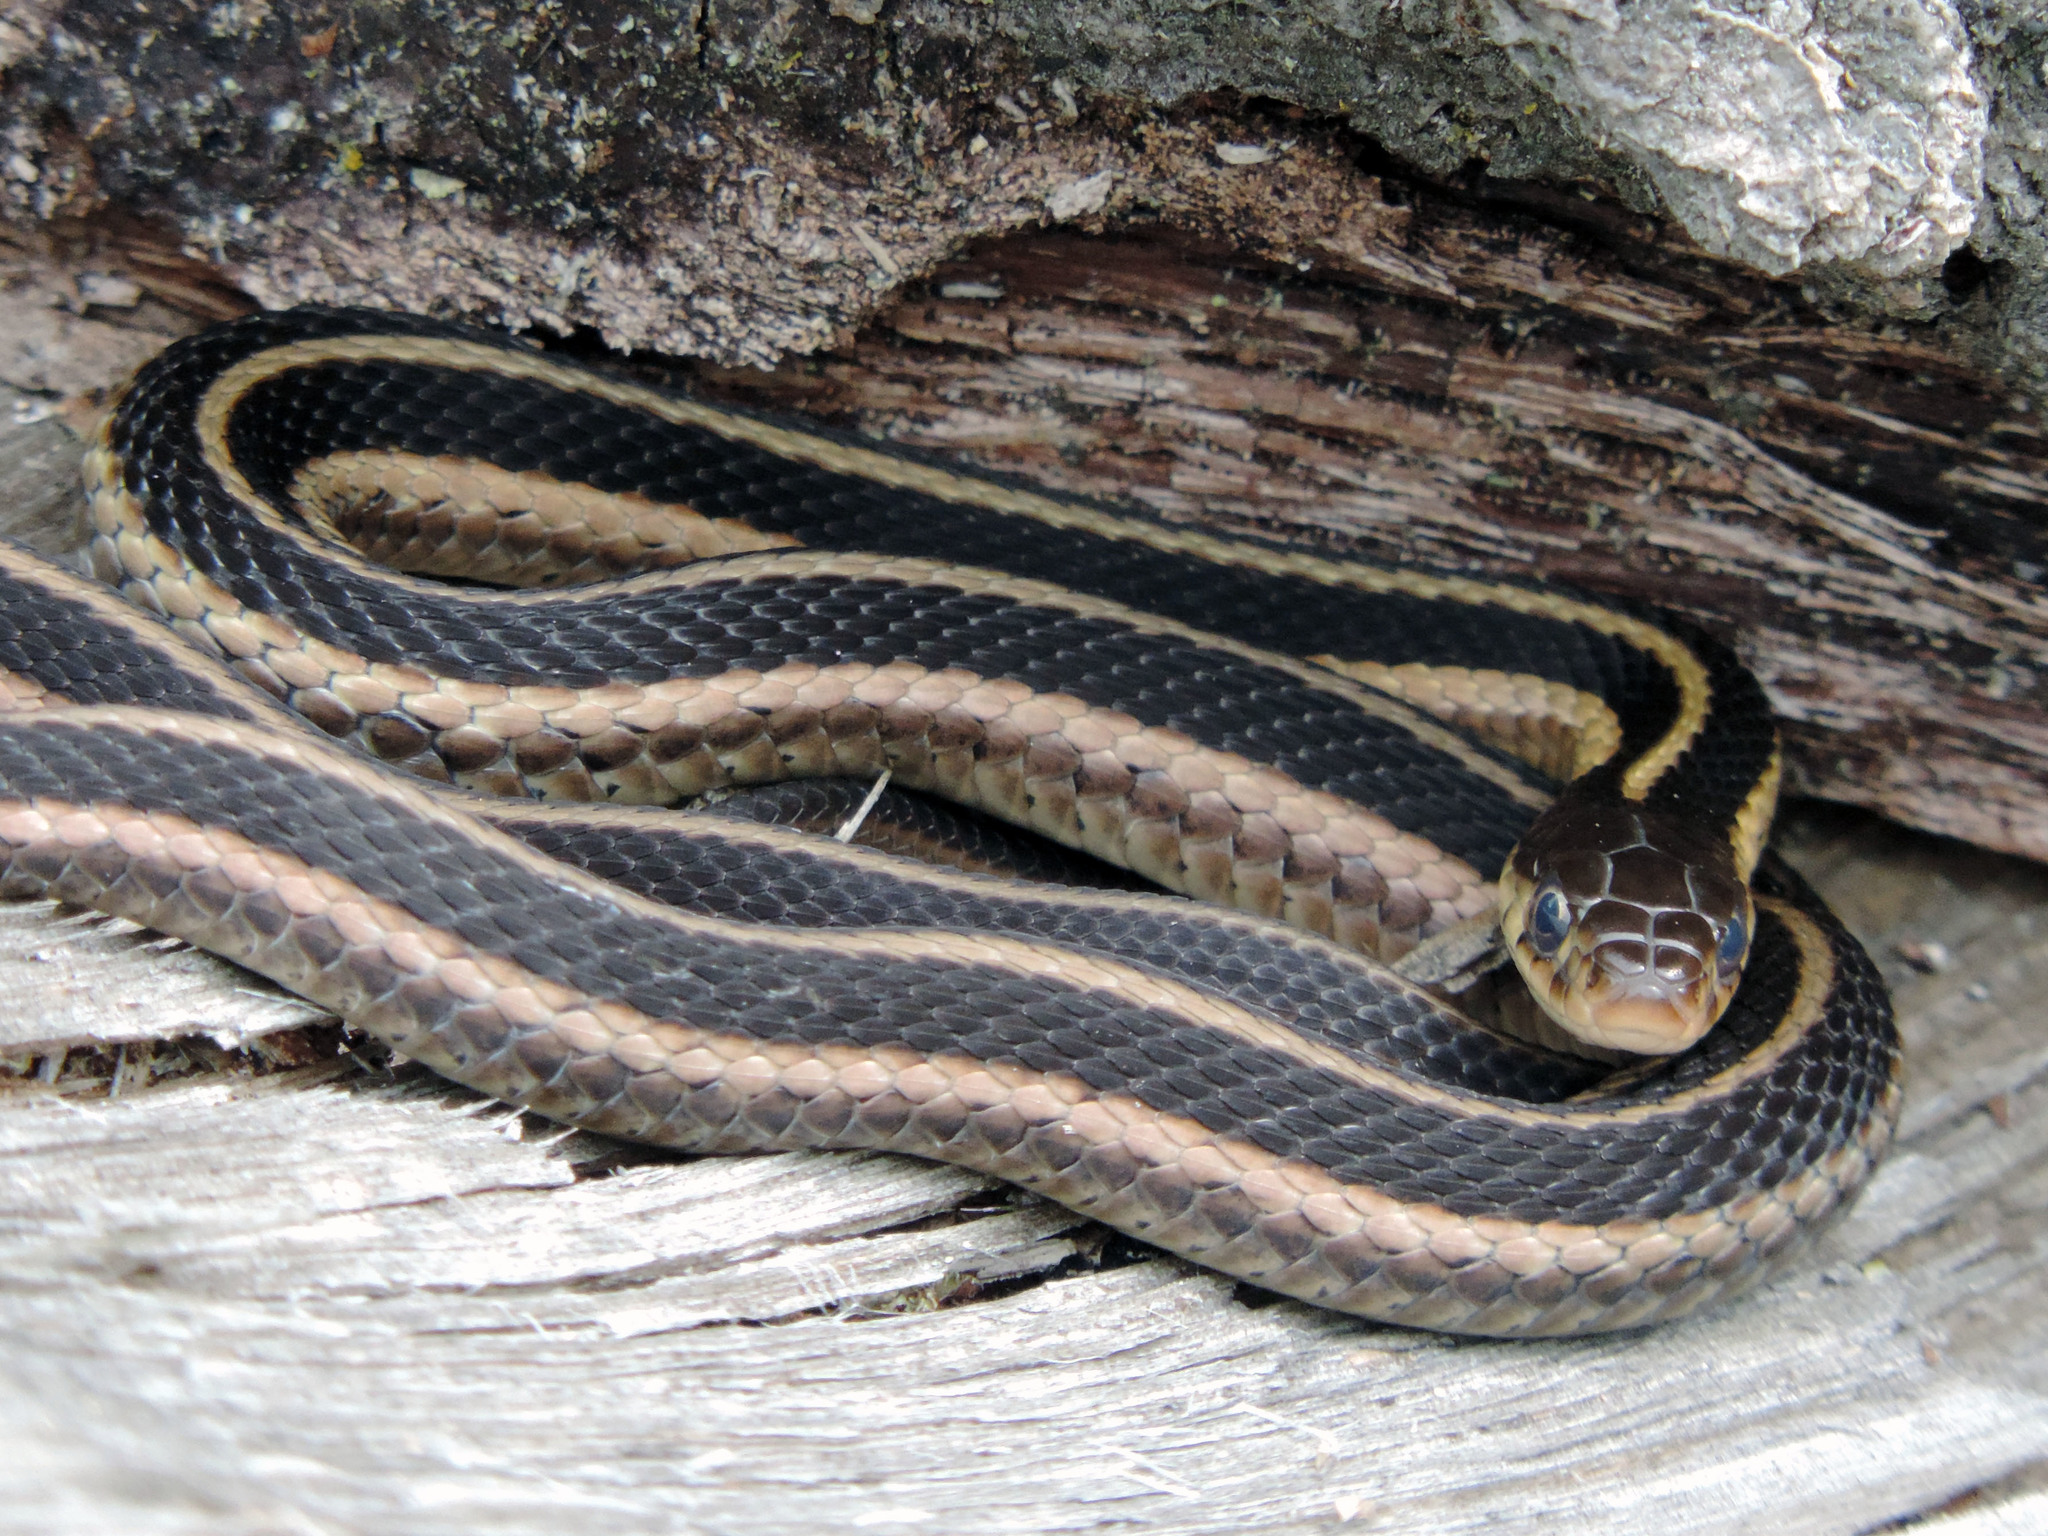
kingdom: Animalia
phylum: Chordata
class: Squamata
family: Colubridae
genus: Thamnophis
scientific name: Thamnophis sirtalis
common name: Common garter snake
